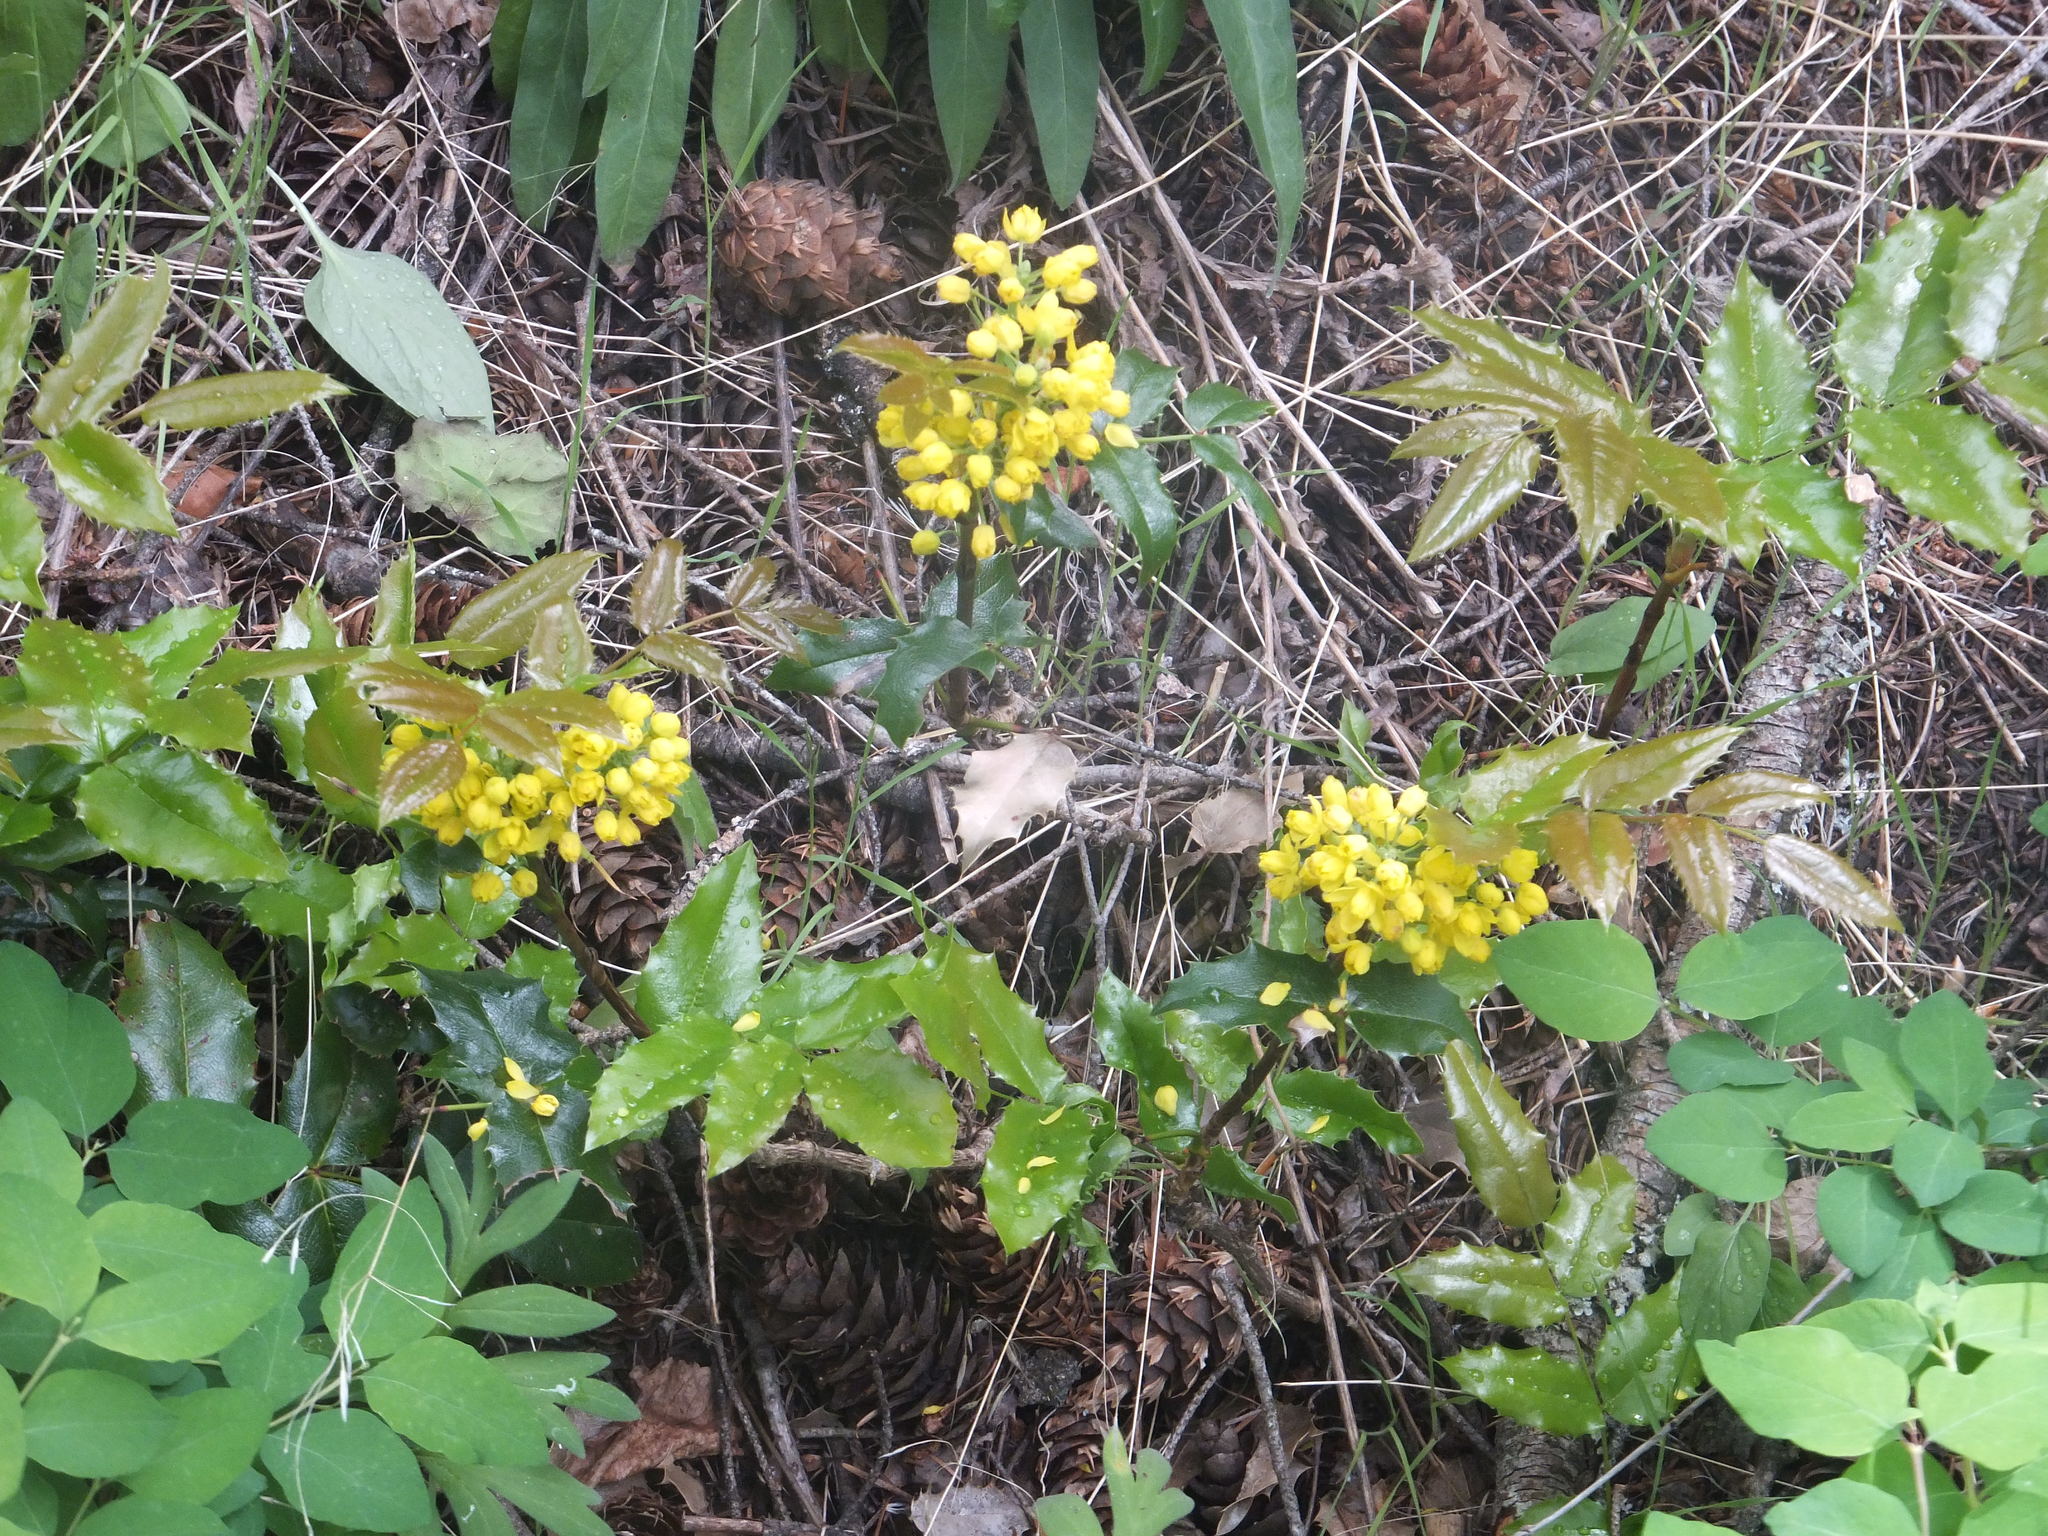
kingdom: Plantae
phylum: Tracheophyta
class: Magnoliopsida
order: Ranunculales
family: Berberidaceae
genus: Mahonia
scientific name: Mahonia aquifolium
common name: Oregon-grape
